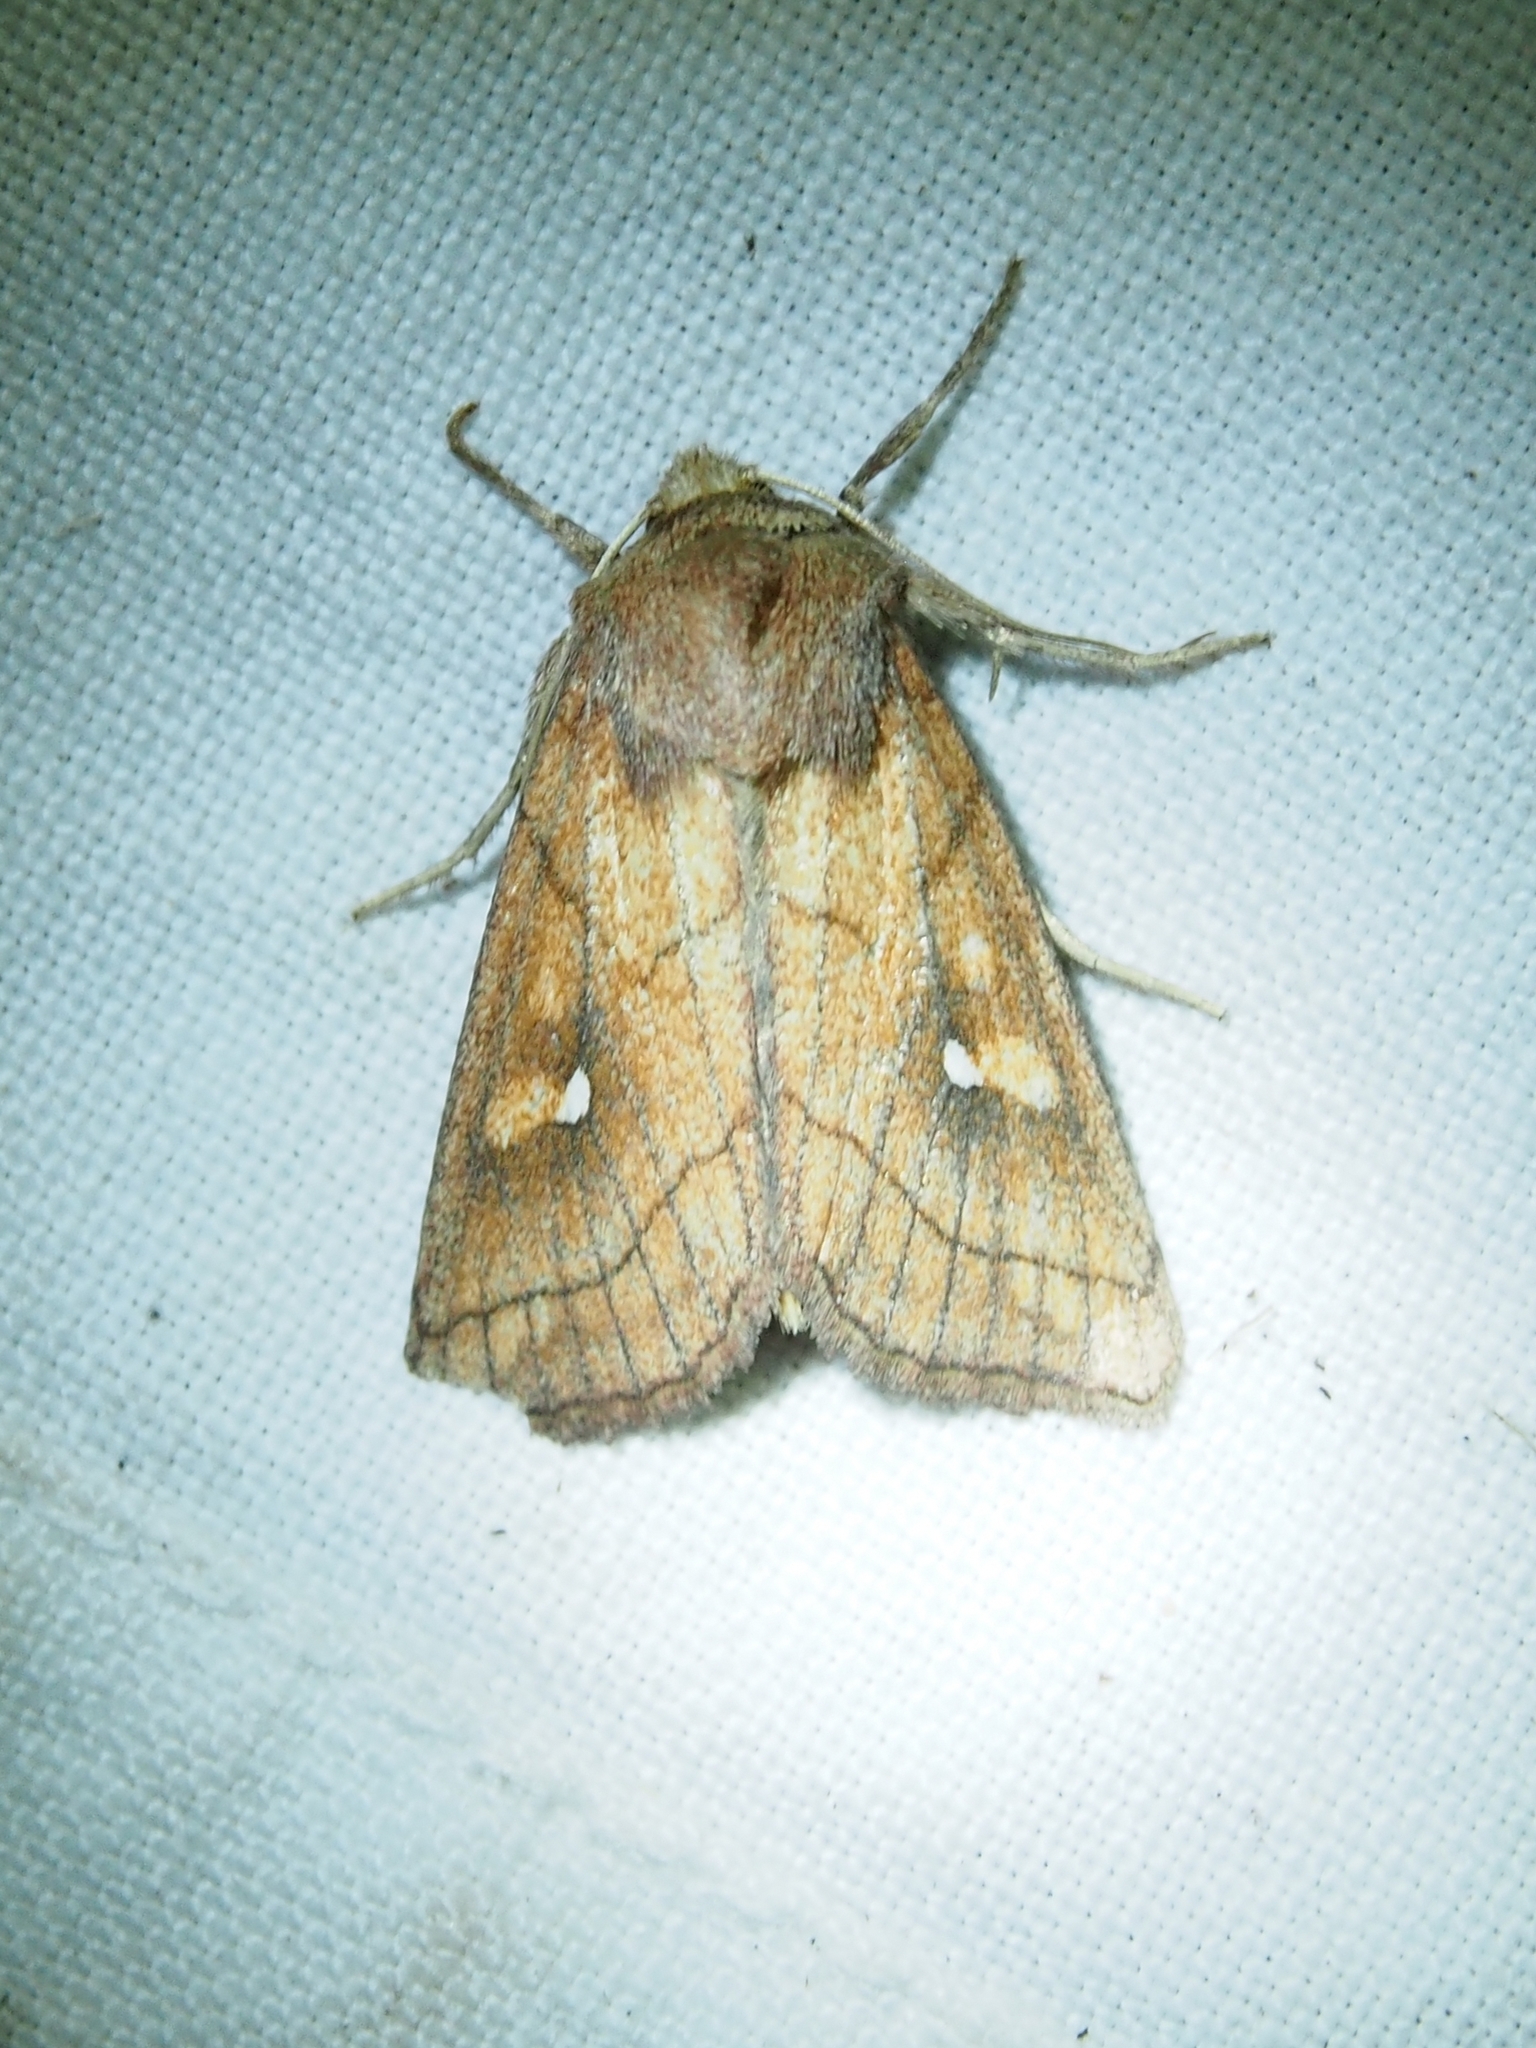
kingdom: Animalia
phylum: Arthropoda
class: Insecta
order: Lepidoptera
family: Noctuidae
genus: Mythimna
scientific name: Mythimna conigera
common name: Brown-line bright-eye
